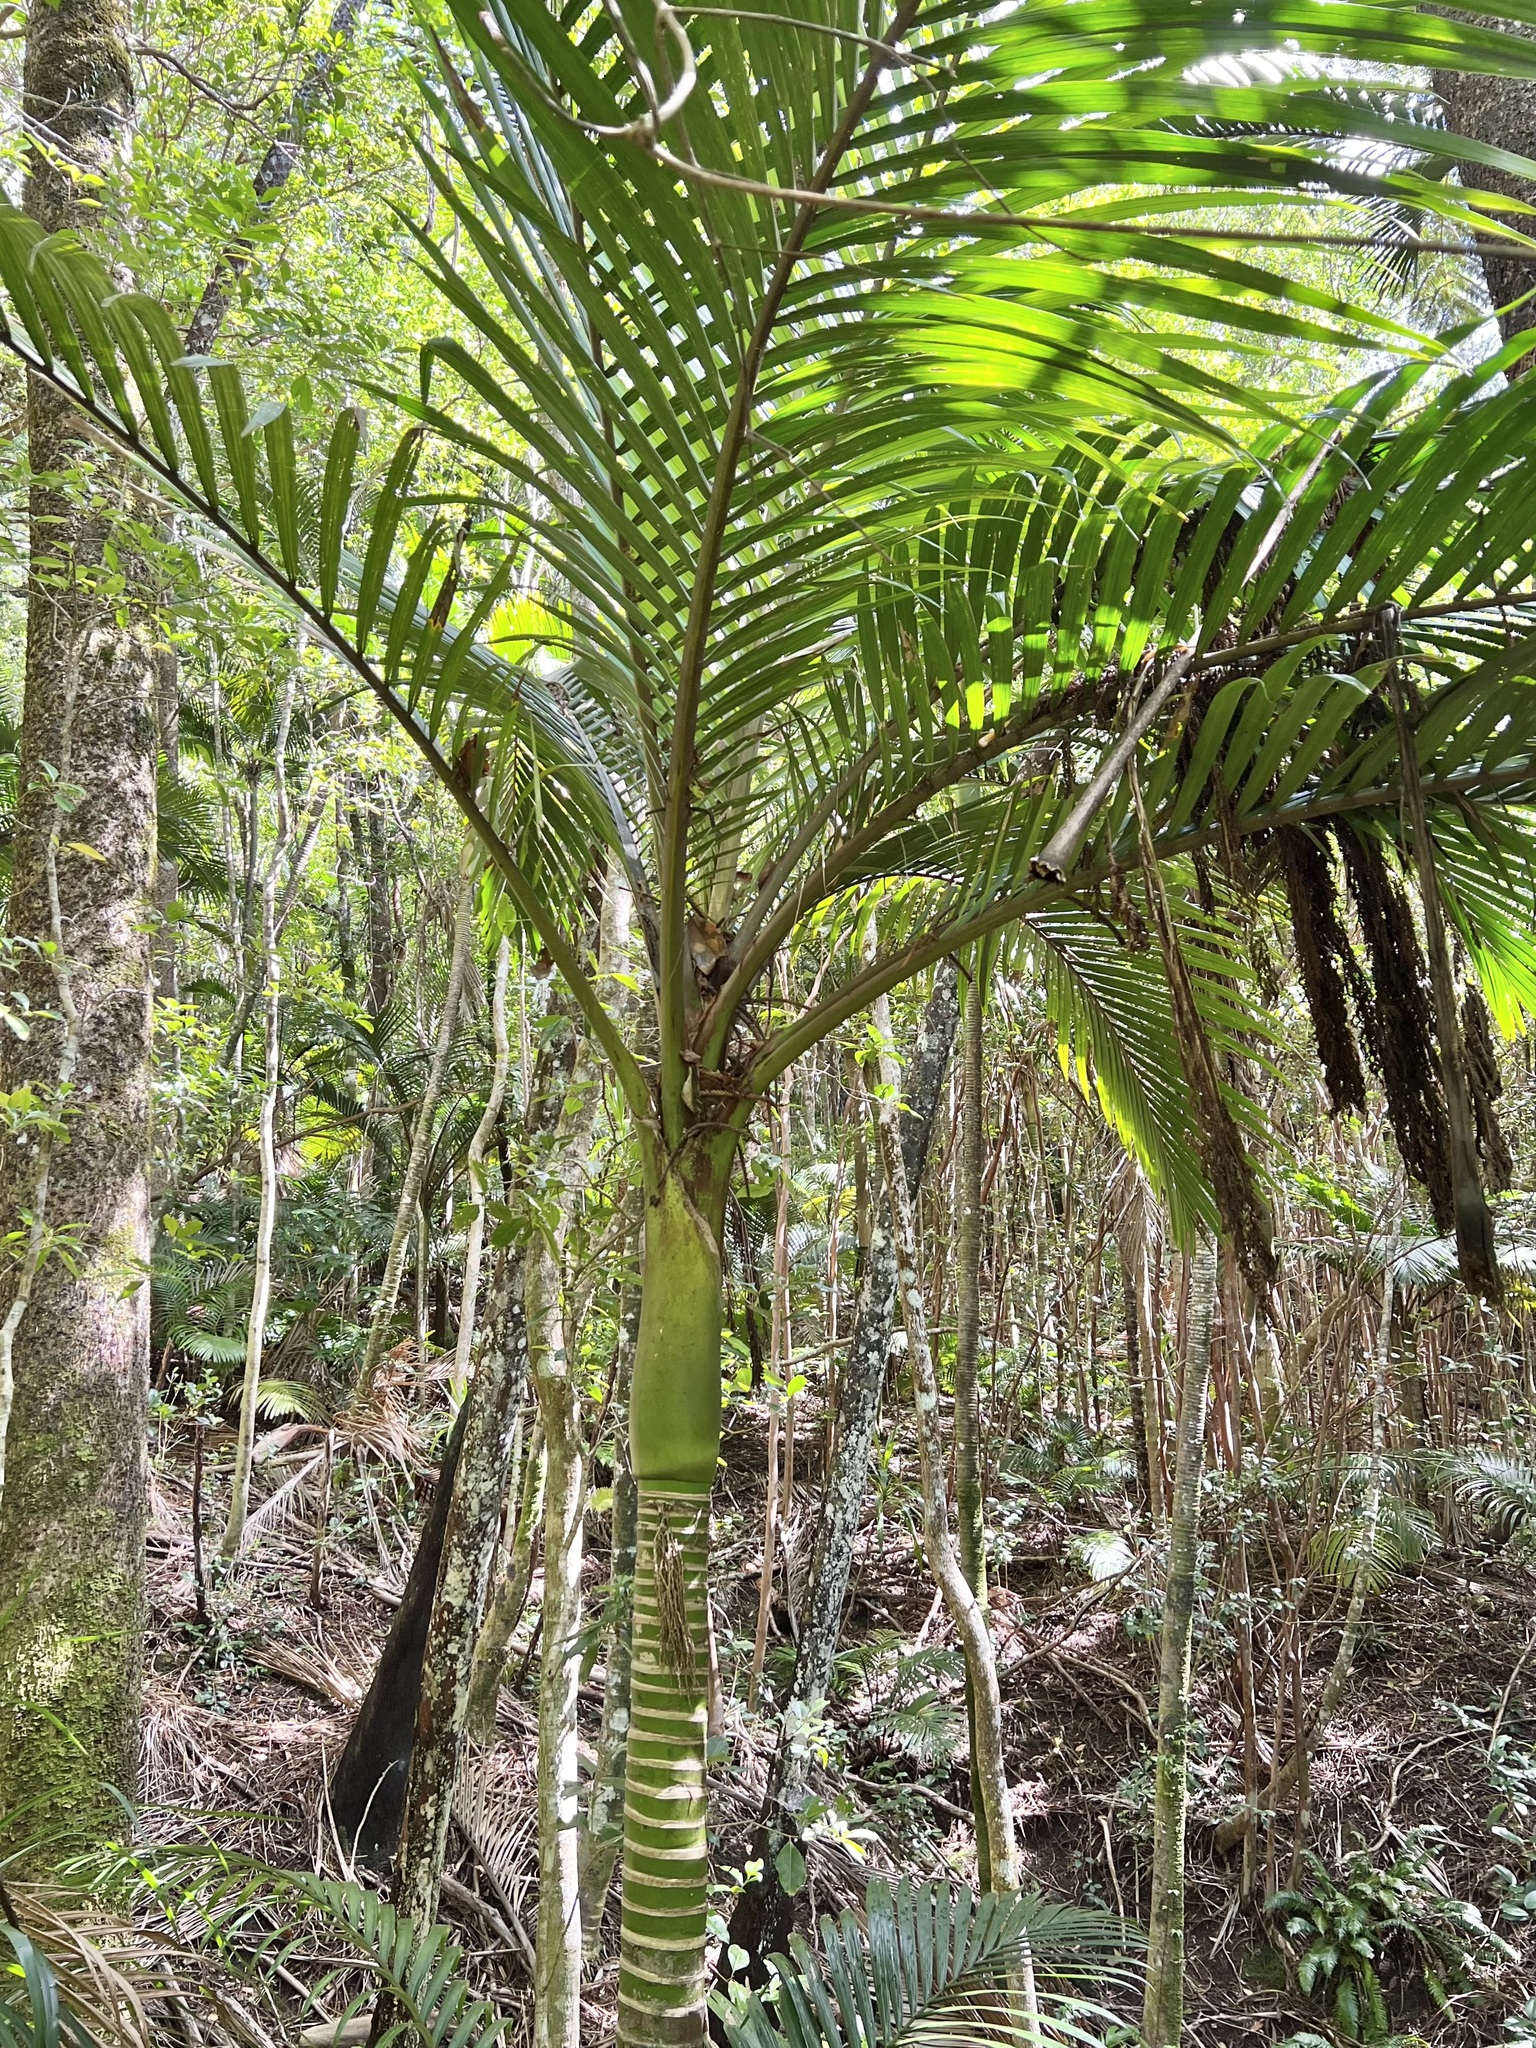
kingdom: Plantae
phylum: Tracheophyta
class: Liliopsida
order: Arecales
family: Arecaceae
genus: Rhopalostylis
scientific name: Rhopalostylis baueri
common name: Norfolk island palm
